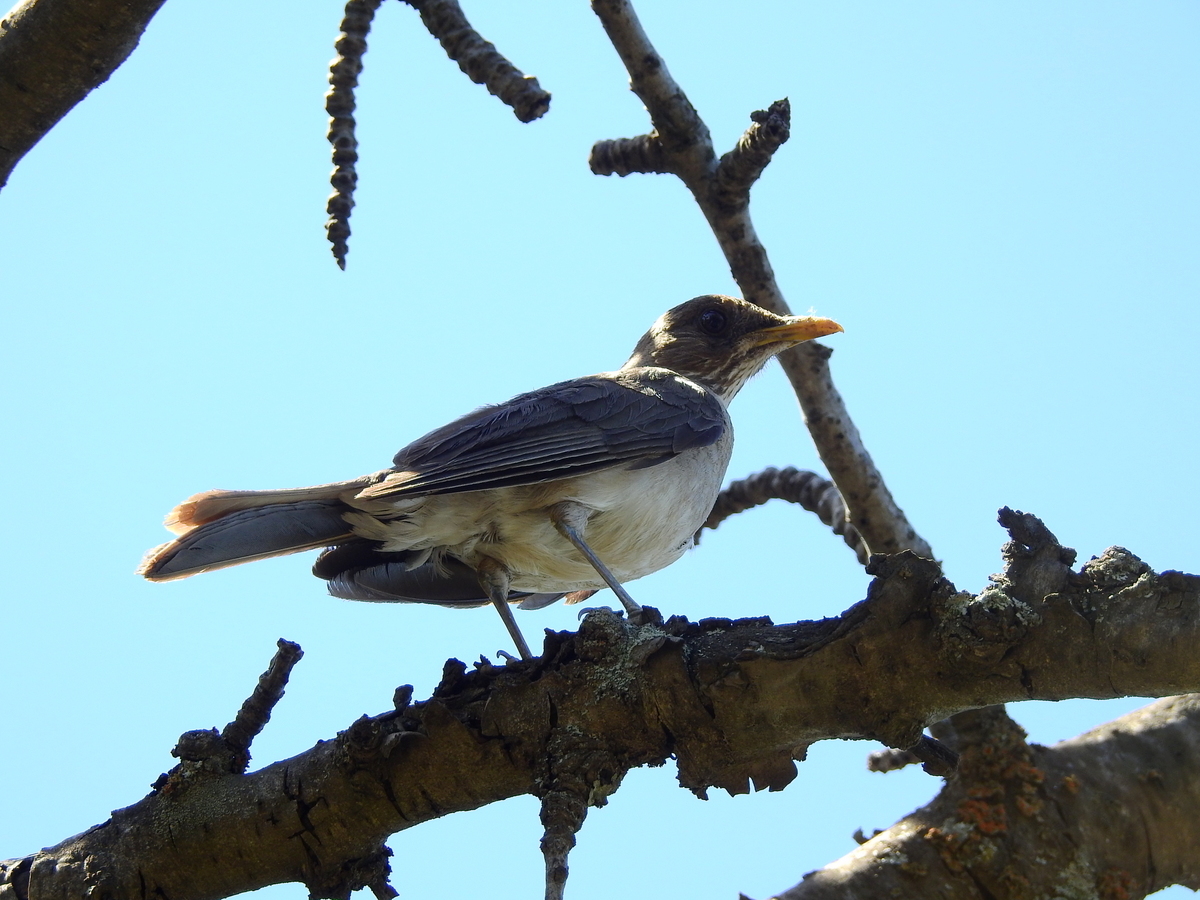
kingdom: Animalia
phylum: Chordata
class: Aves
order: Passeriformes
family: Turdidae
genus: Turdus
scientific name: Turdus amaurochalinus
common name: Creamy-bellied thrush
